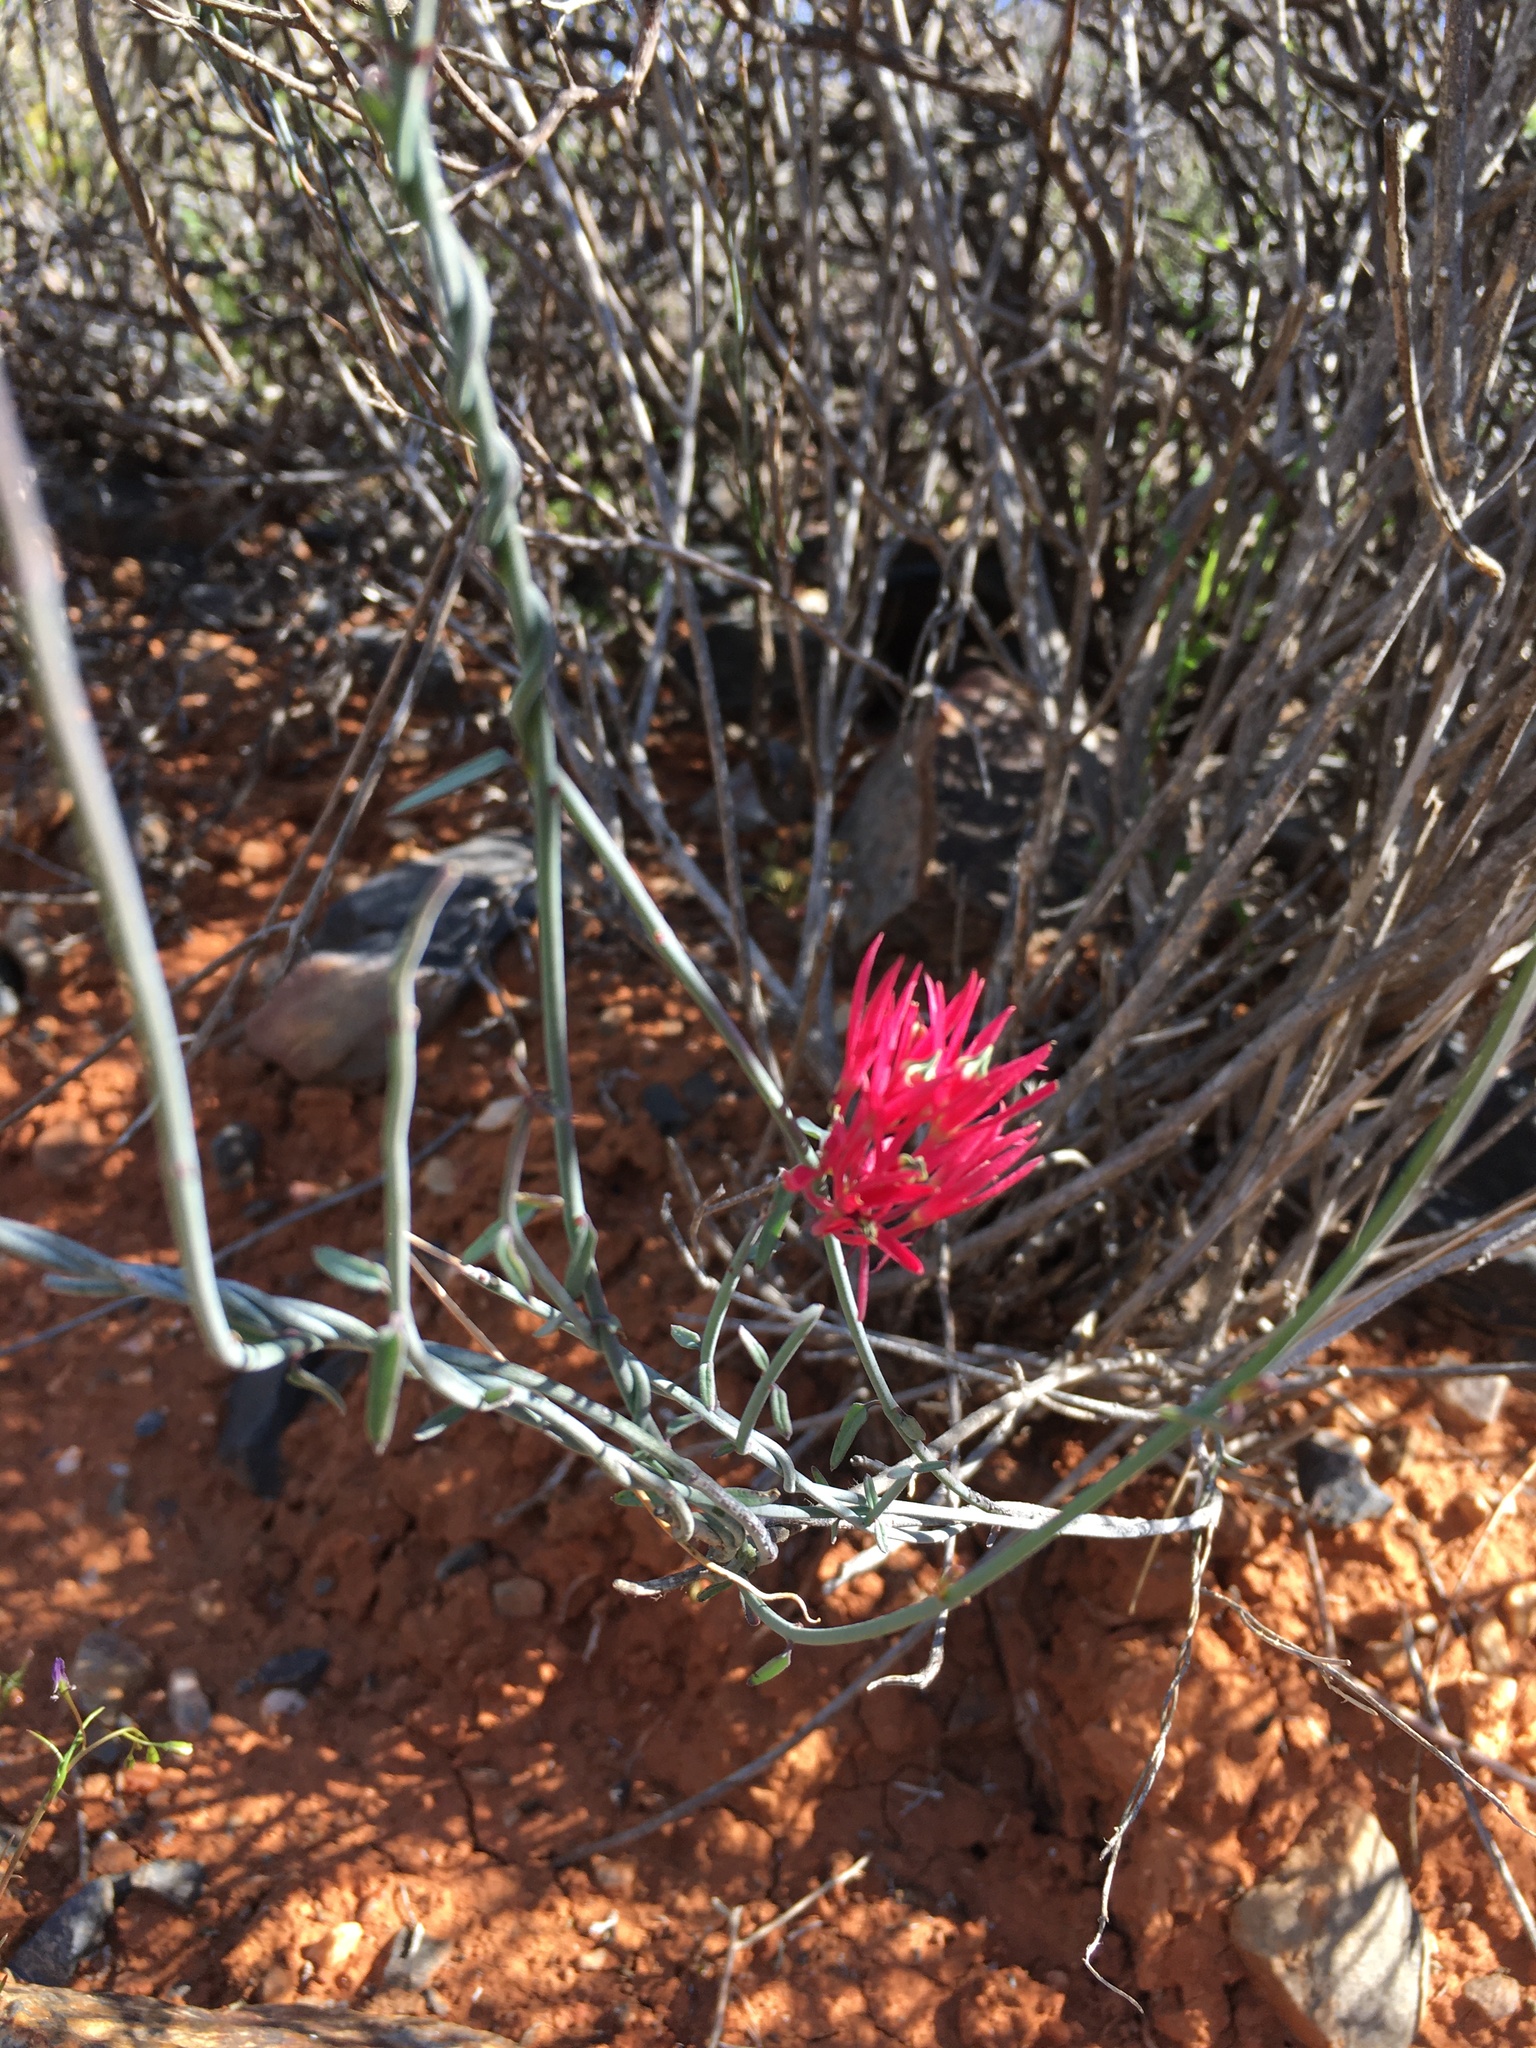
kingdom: Plantae
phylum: Tracheophyta
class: Magnoliopsida
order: Gentianales
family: Apocynaceae
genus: Microloma
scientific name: Microloma calycinum
